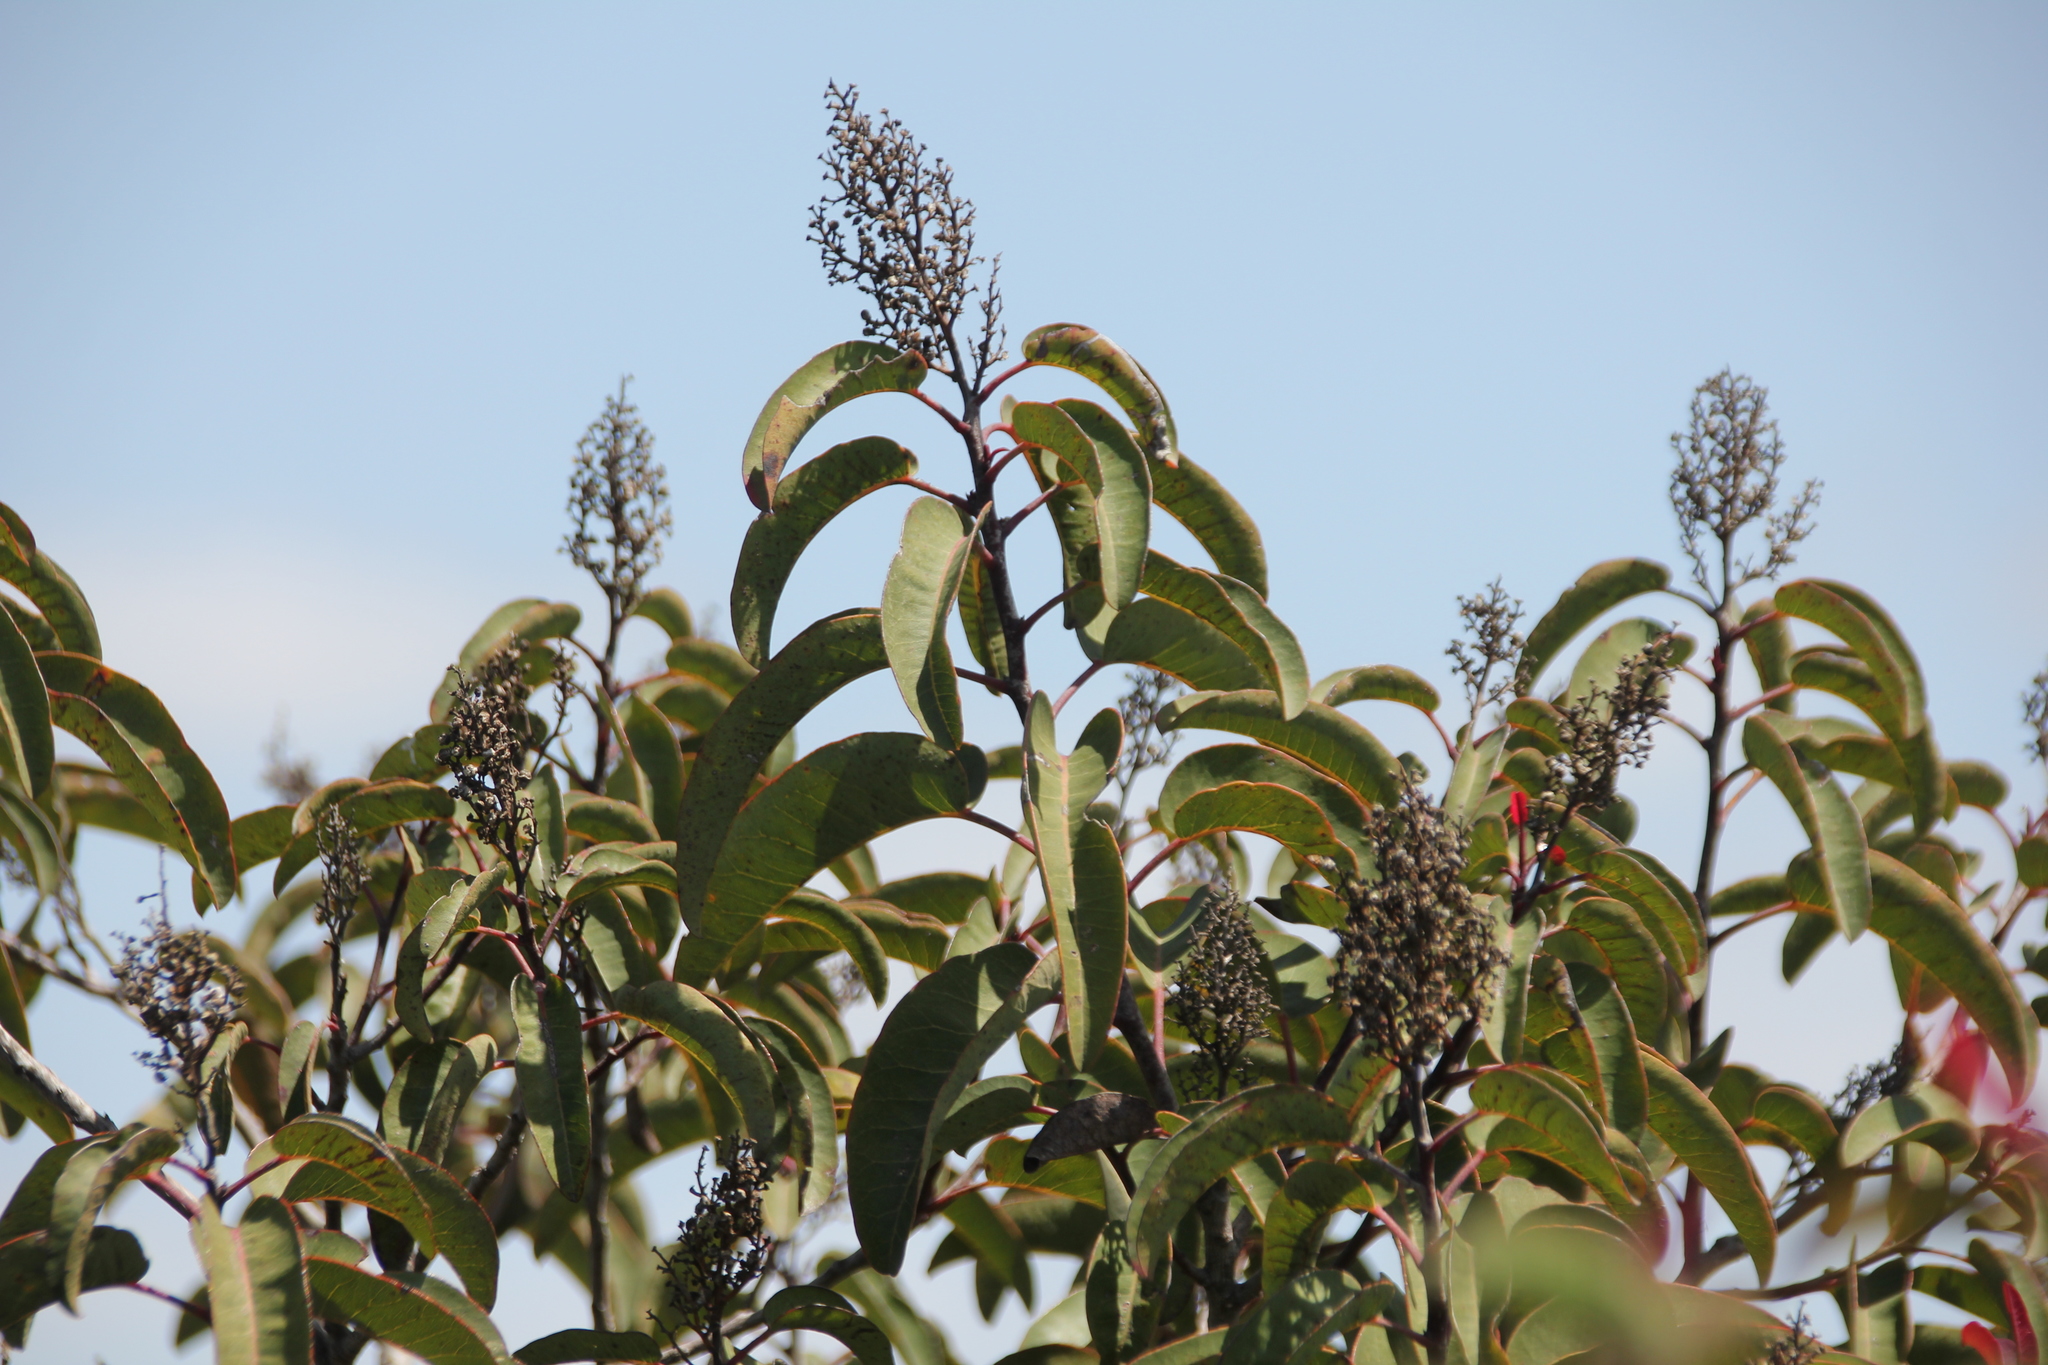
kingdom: Plantae
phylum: Tracheophyta
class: Magnoliopsida
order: Sapindales
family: Anacardiaceae
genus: Malosma
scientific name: Malosma laurina
